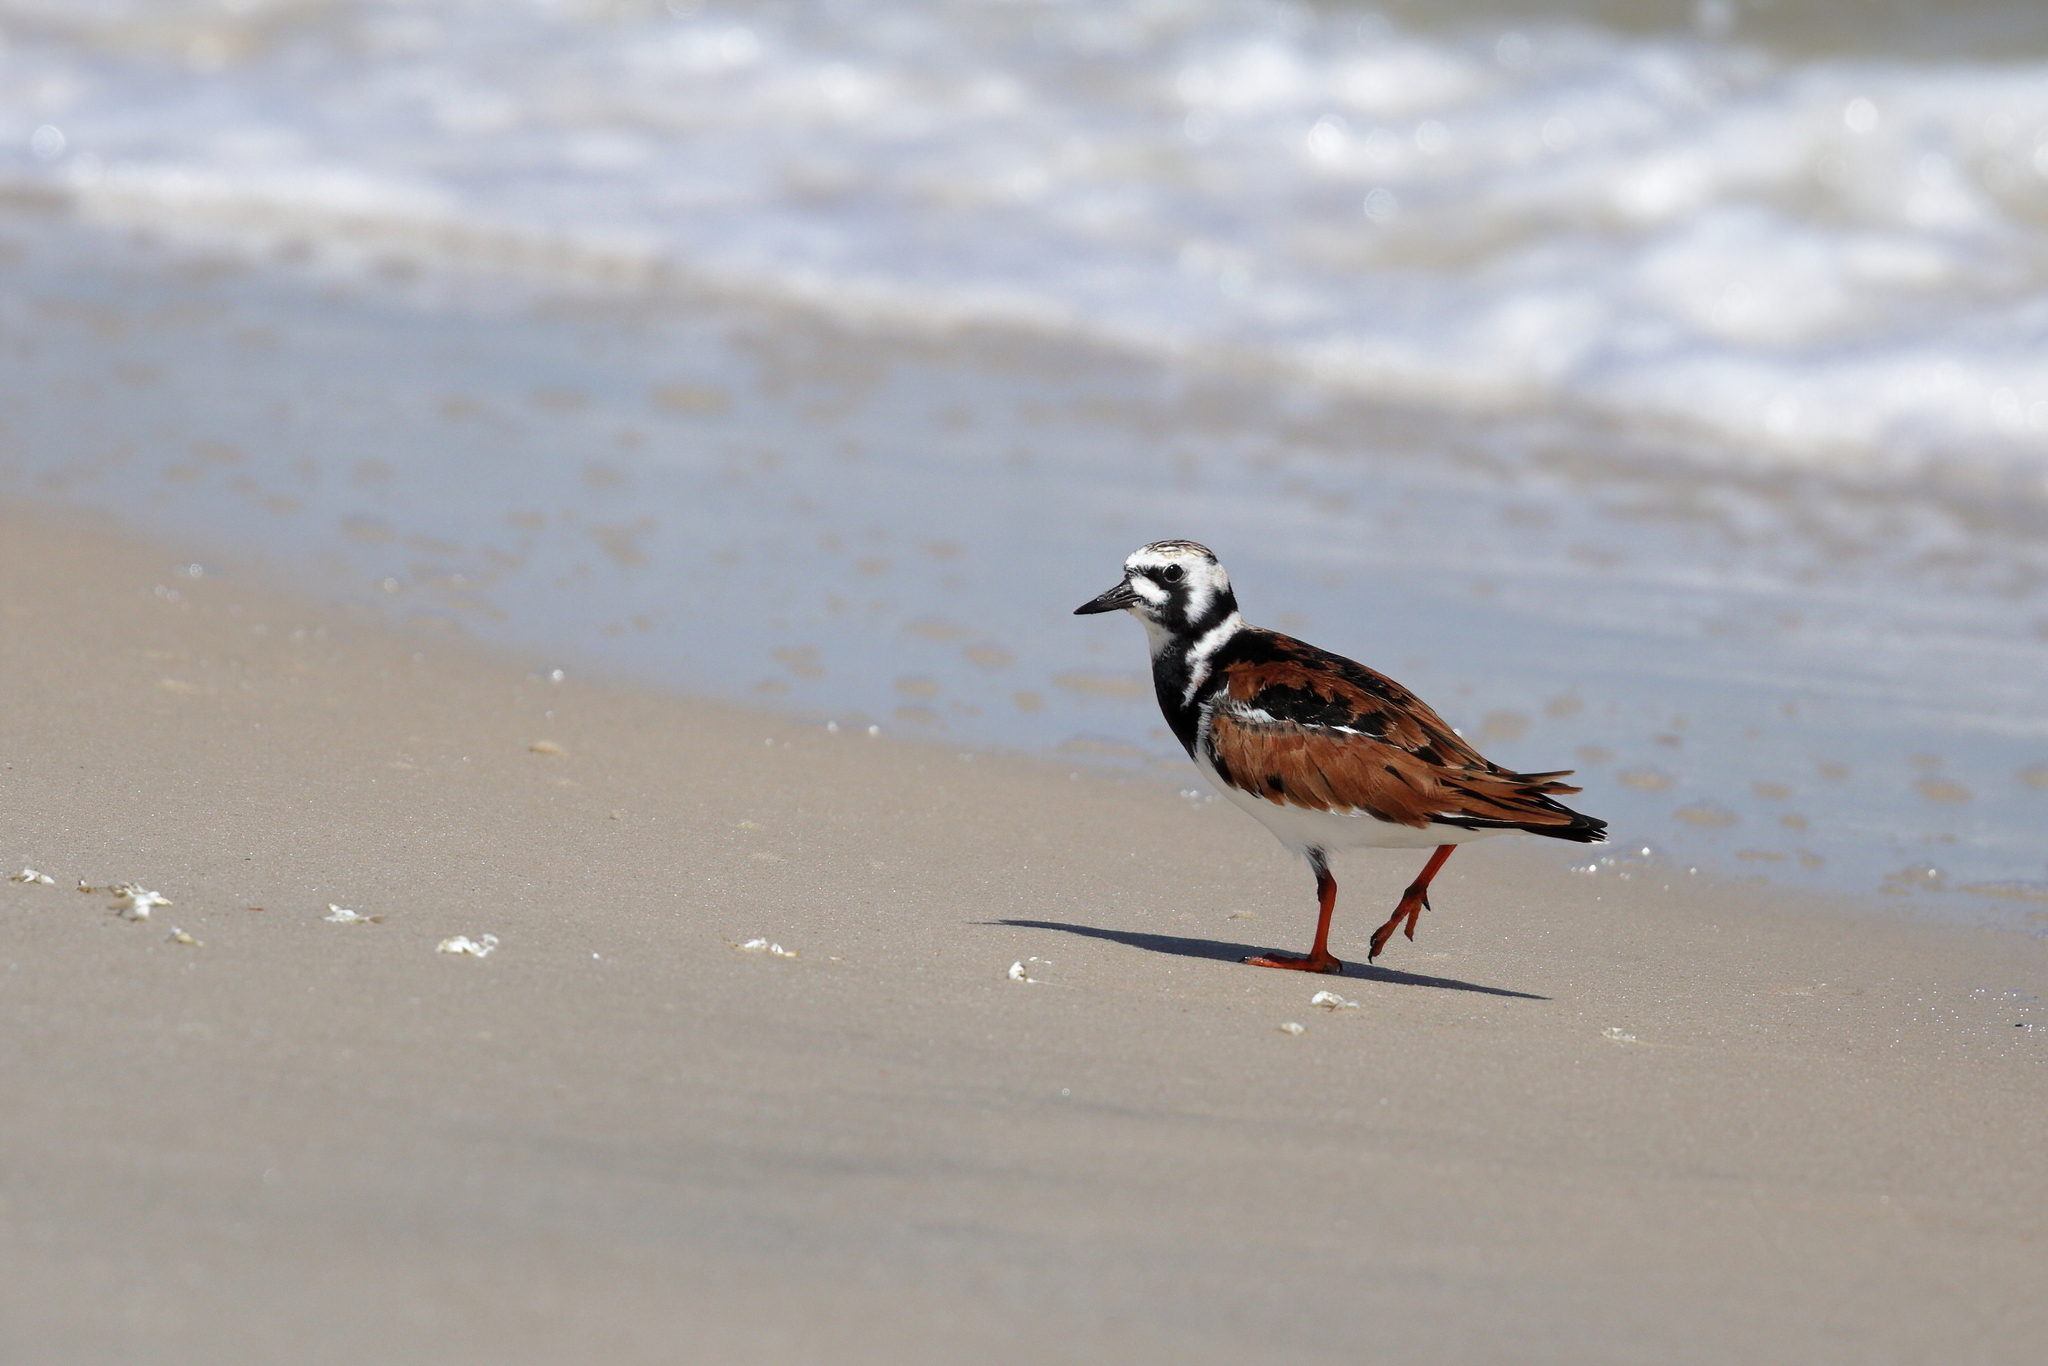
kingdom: Animalia
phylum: Chordata
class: Aves
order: Charadriiformes
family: Scolopacidae
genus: Arenaria
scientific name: Arenaria interpres
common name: Ruddy turnstone
